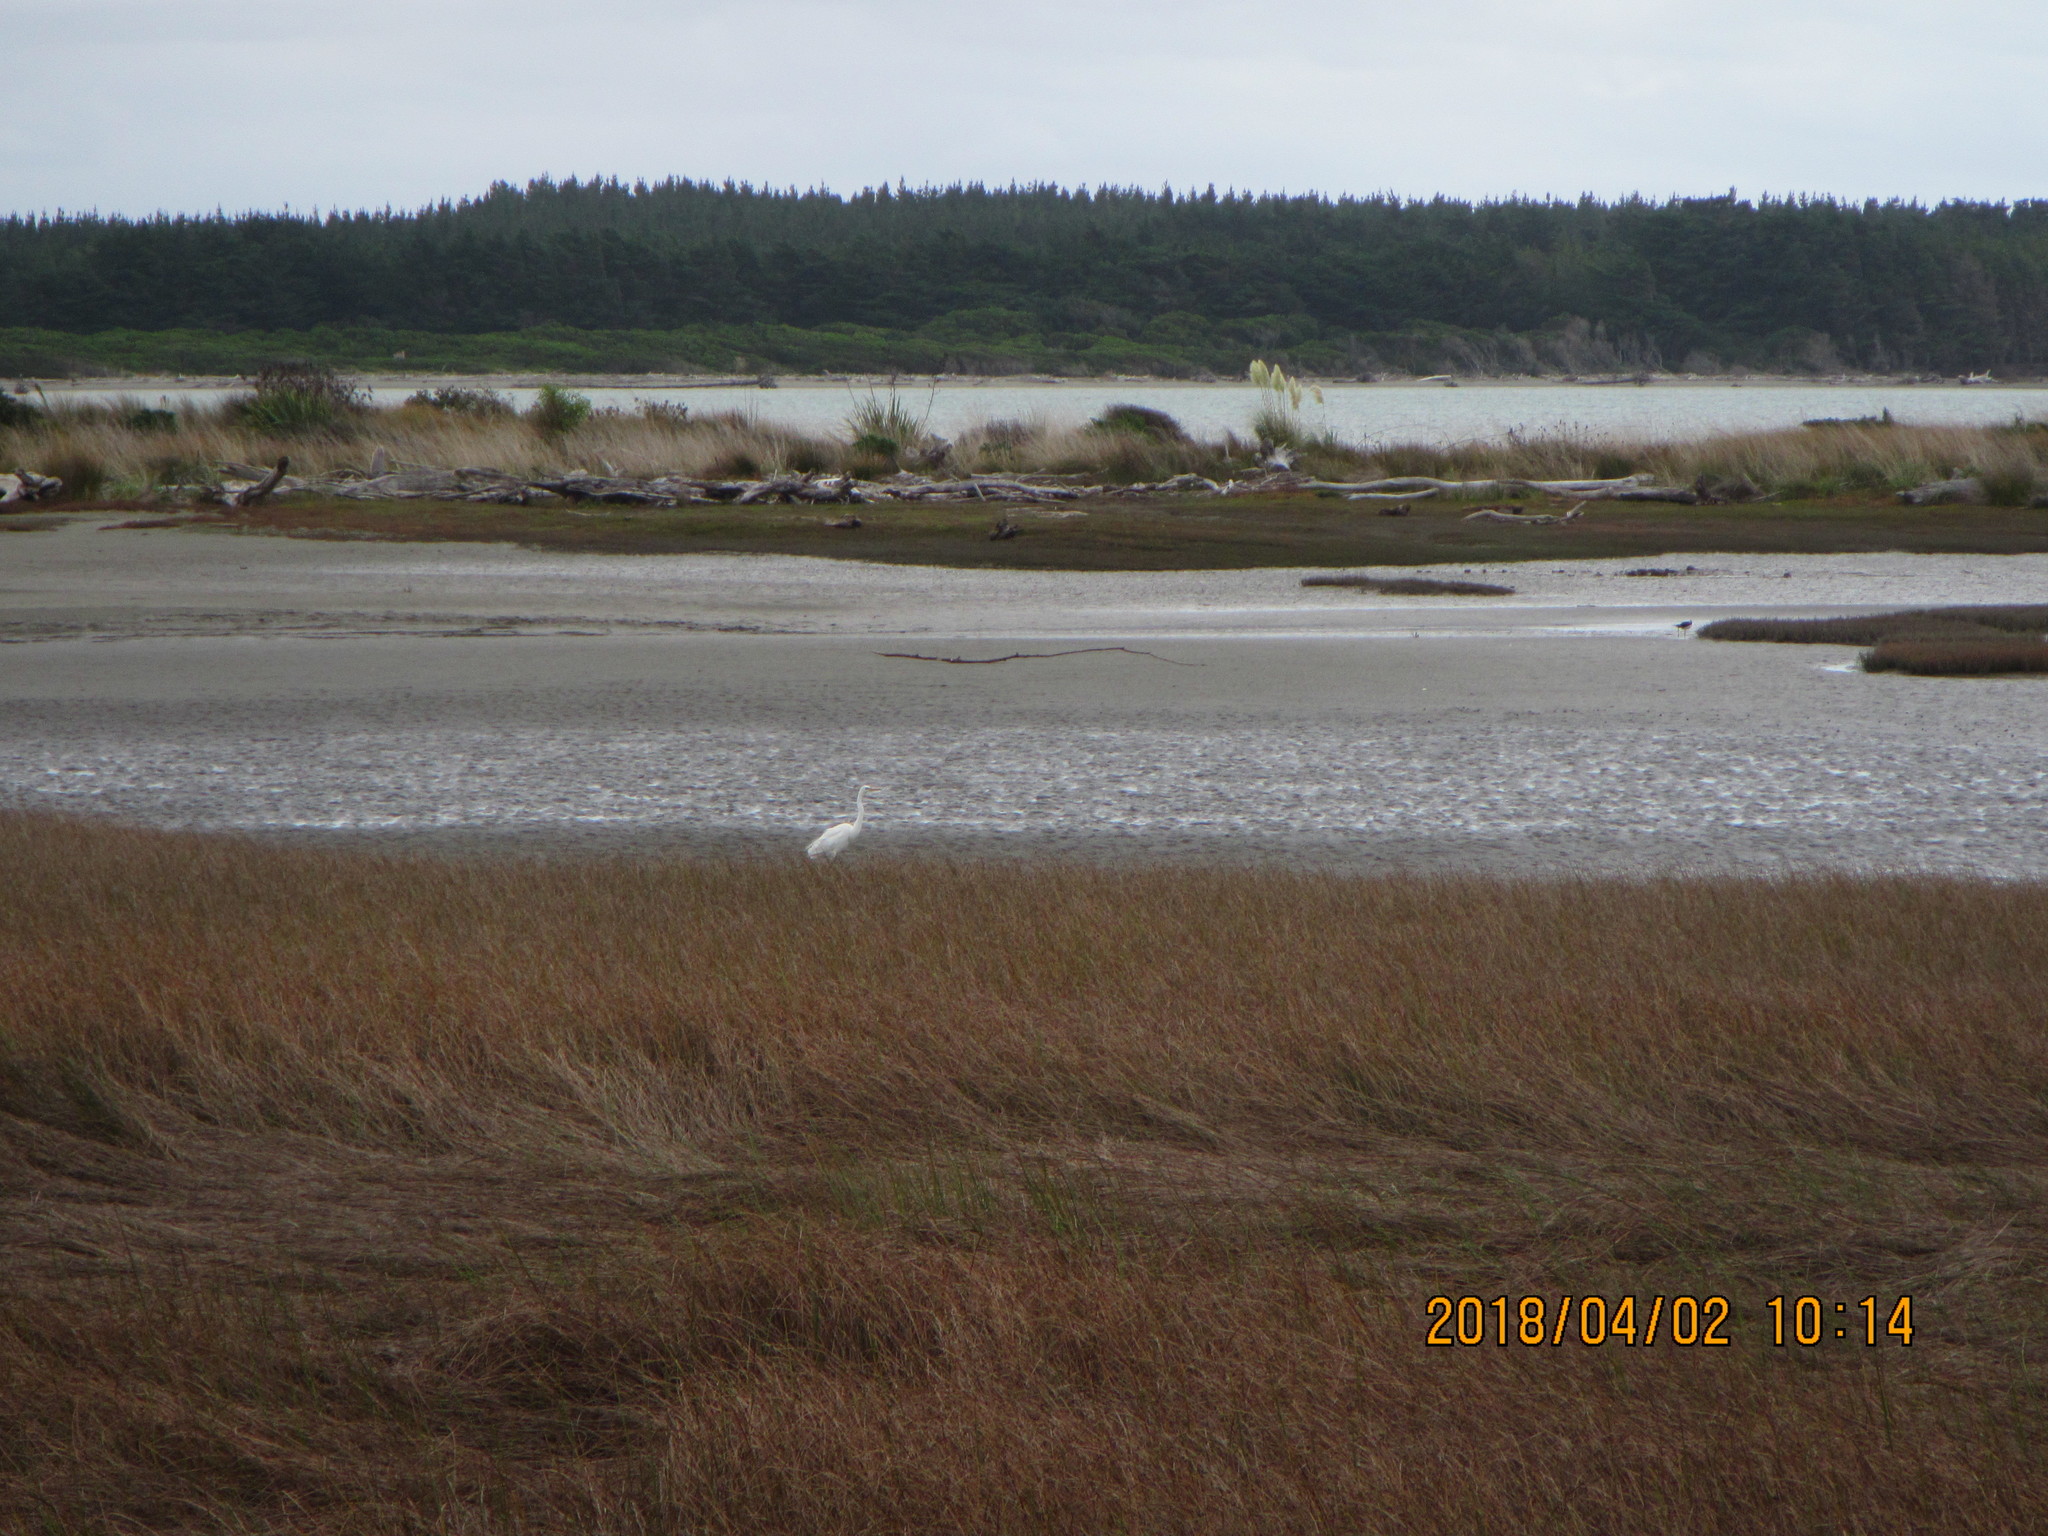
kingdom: Animalia
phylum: Chordata
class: Aves
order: Pelecaniformes
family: Ardeidae
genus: Ardea
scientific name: Ardea modesta
